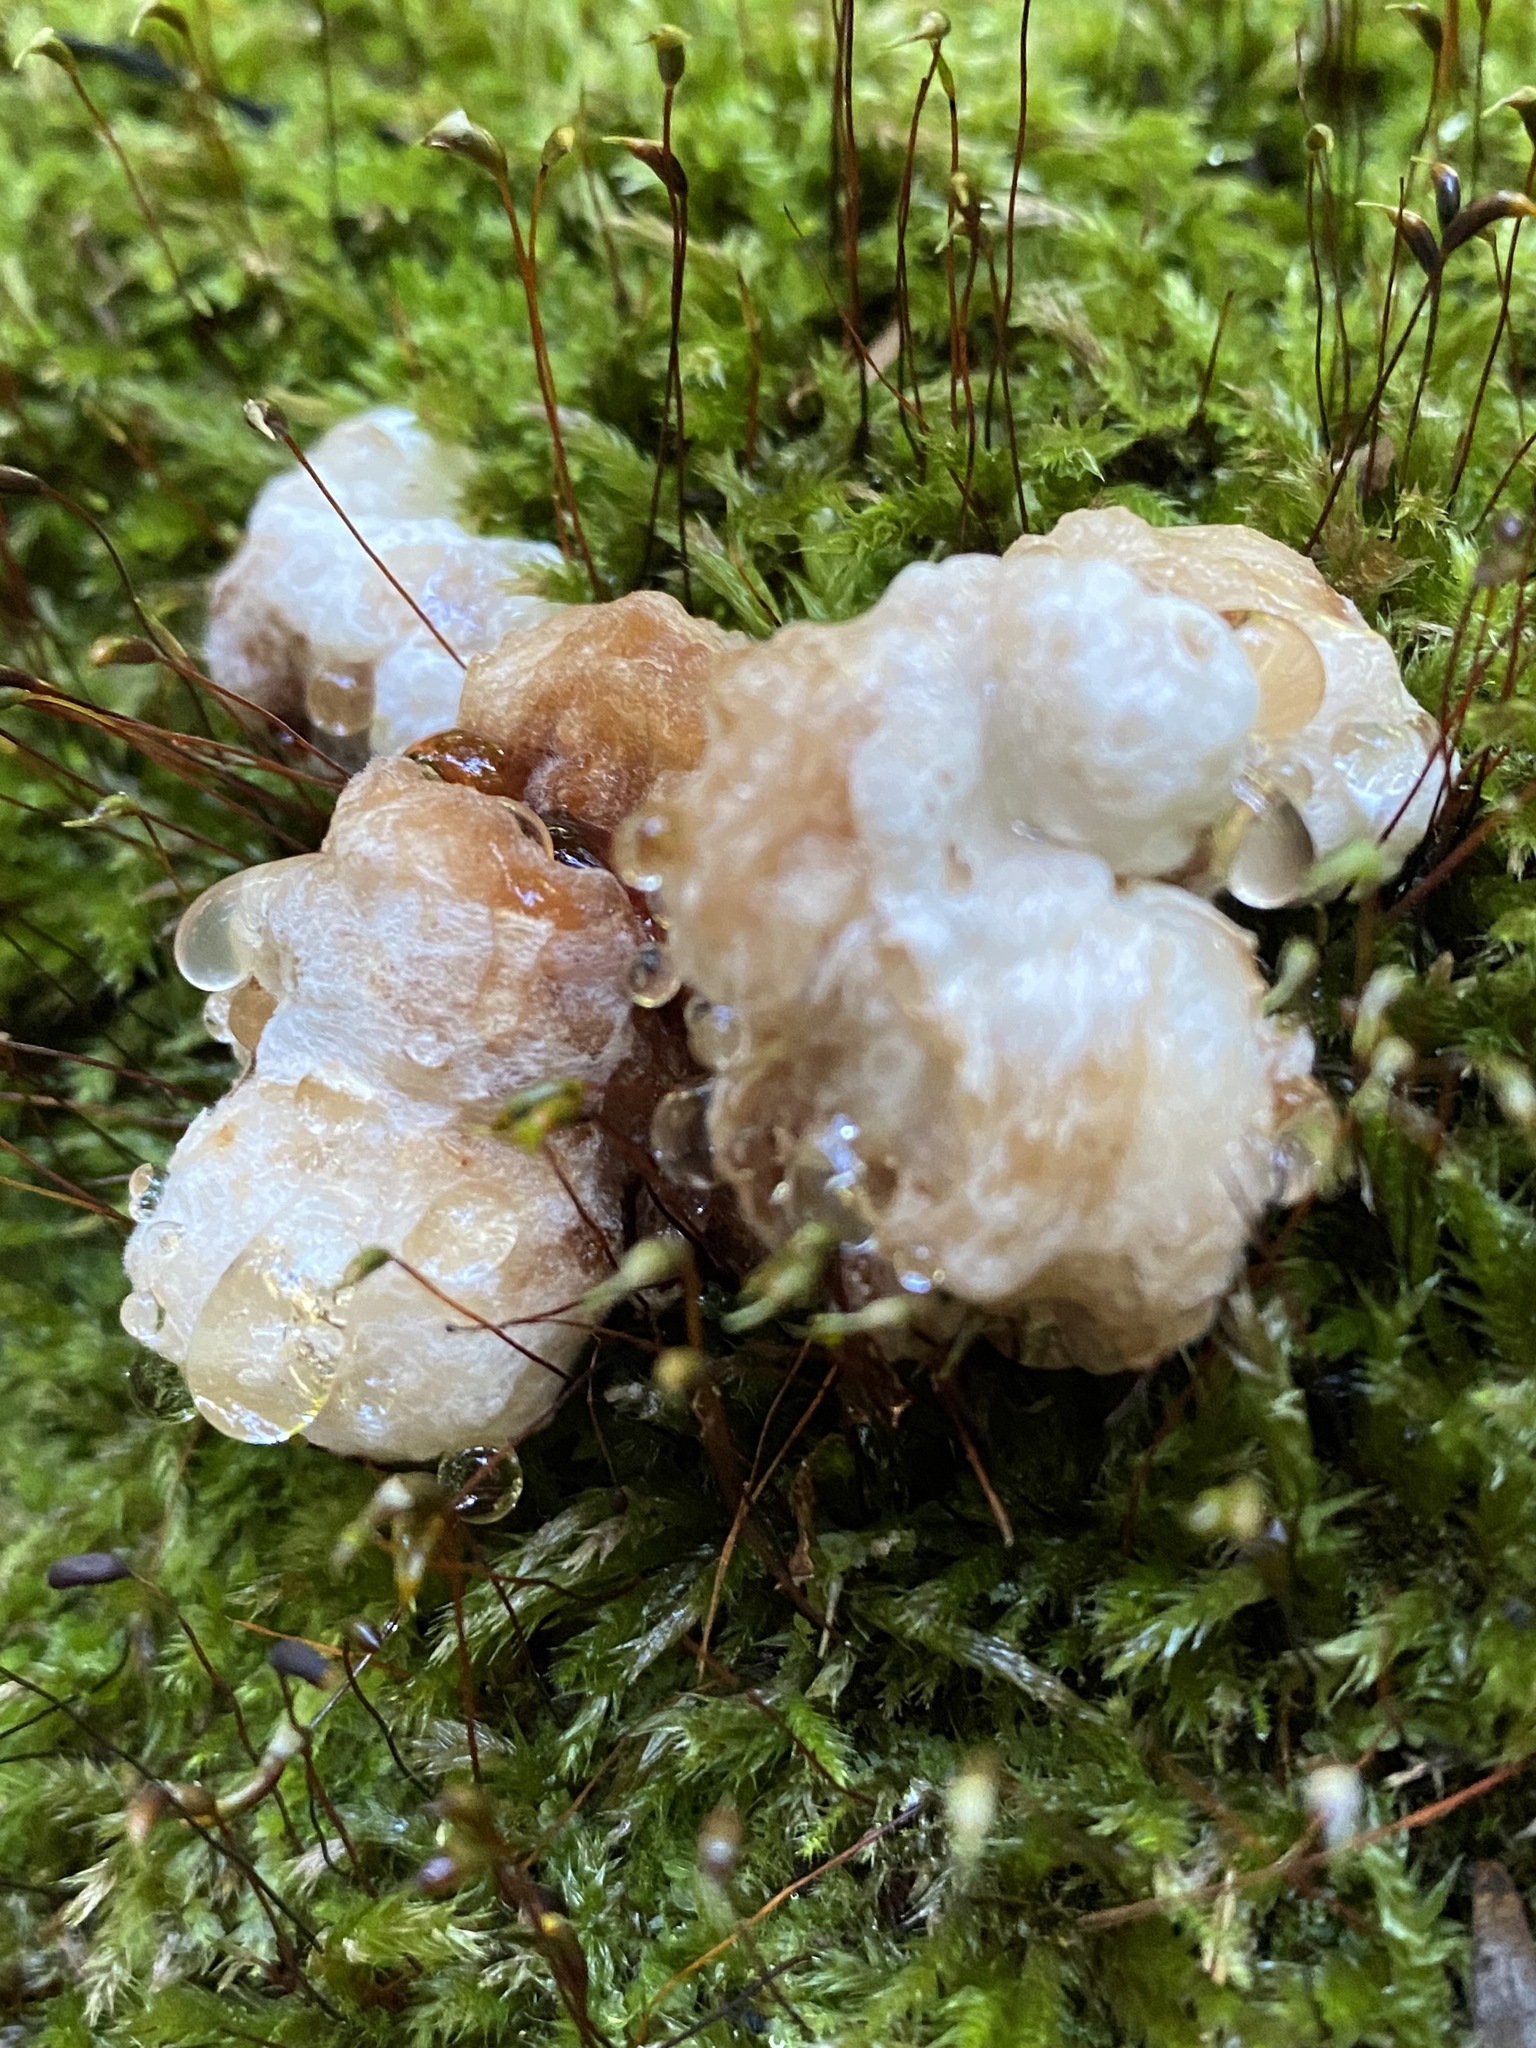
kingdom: Fungi
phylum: Basidiomycota
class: Agaricomycetes
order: Agaricales
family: Entolomataceae
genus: Entoloma
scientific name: Entoloma abortivum
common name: Aborted entoloma
